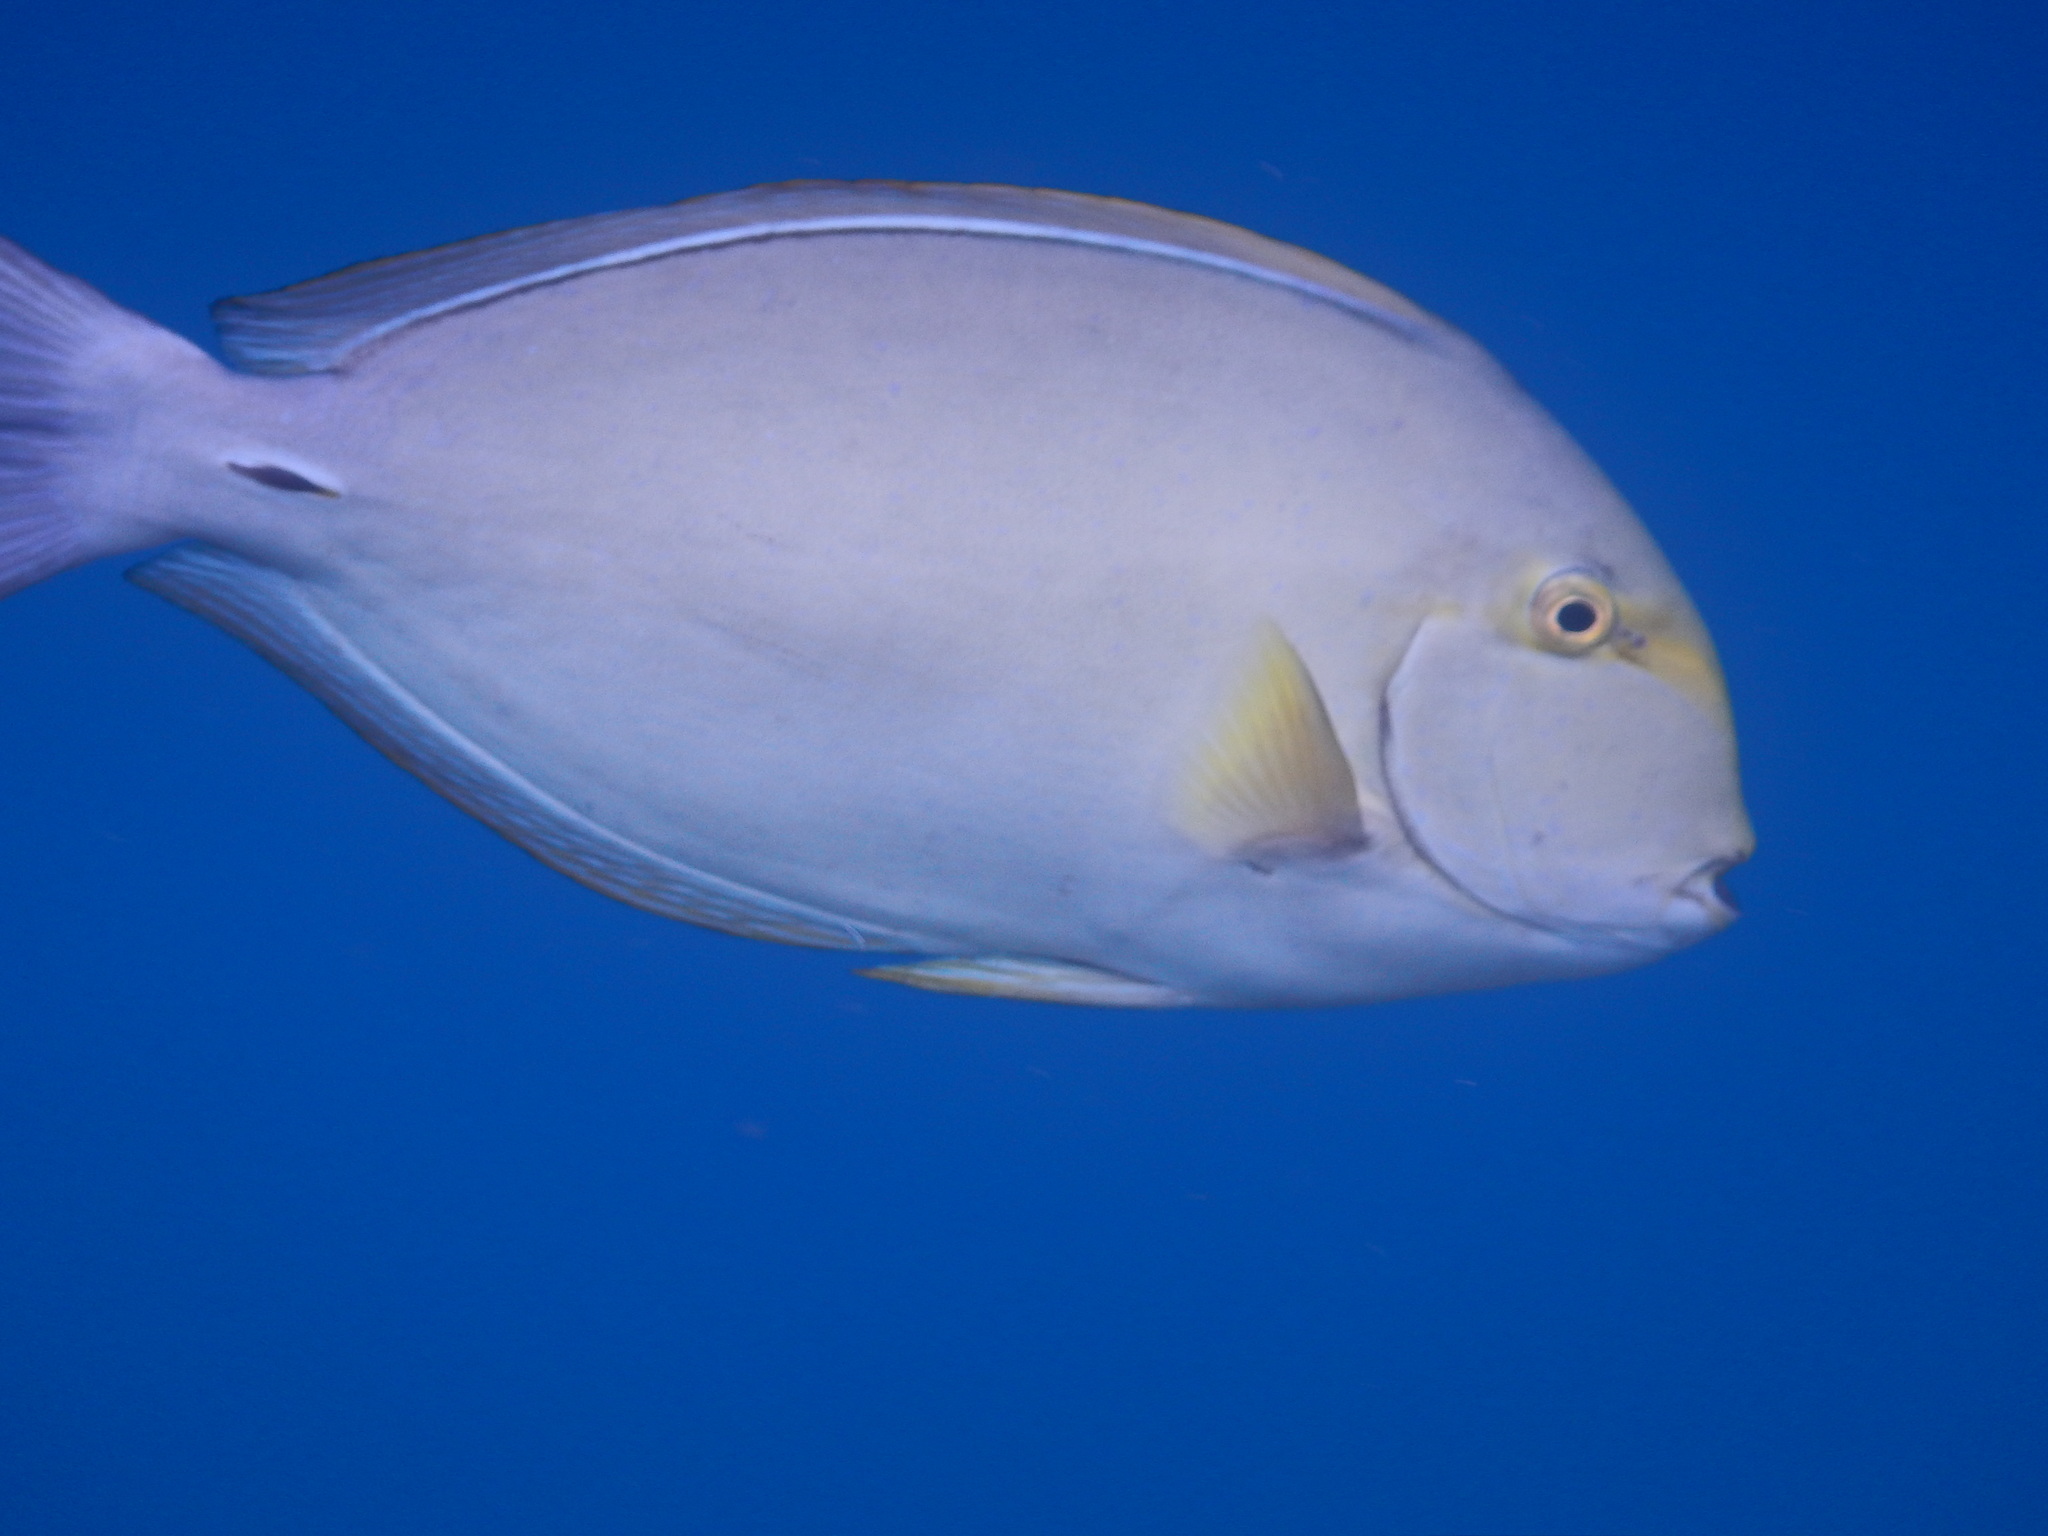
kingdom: Animalia
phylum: Chordata
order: Perciformes
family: Acanthuridae
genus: Acanthurus
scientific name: Acanthurus xanthopterus
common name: Cuvier's surgeonfish
